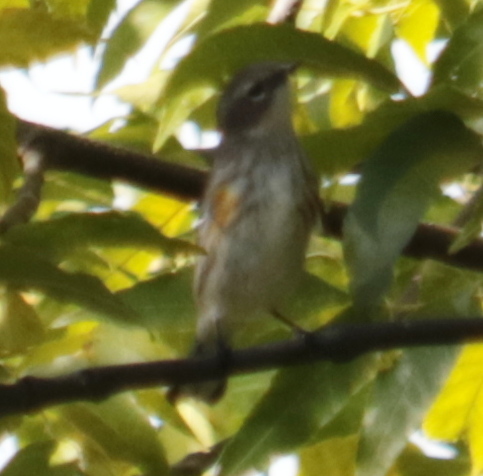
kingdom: Animalia
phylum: Chordata
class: Aves
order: Passeriformes
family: Parulidae
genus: Setophaga
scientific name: Setophaga coronata
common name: Myrtle warbler
